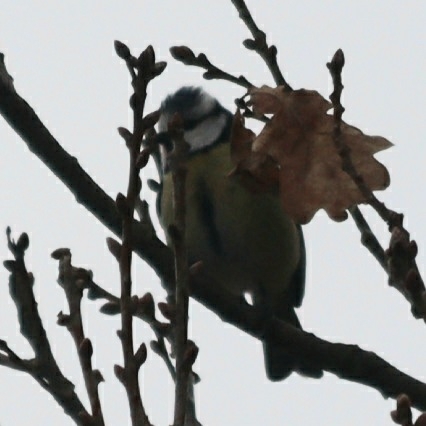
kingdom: Animalia
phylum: Chordata
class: Aves
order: Passeriformes
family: Paridae
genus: Cyanistes
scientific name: Cyanistes caeruleus
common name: Eurasian blue tit
